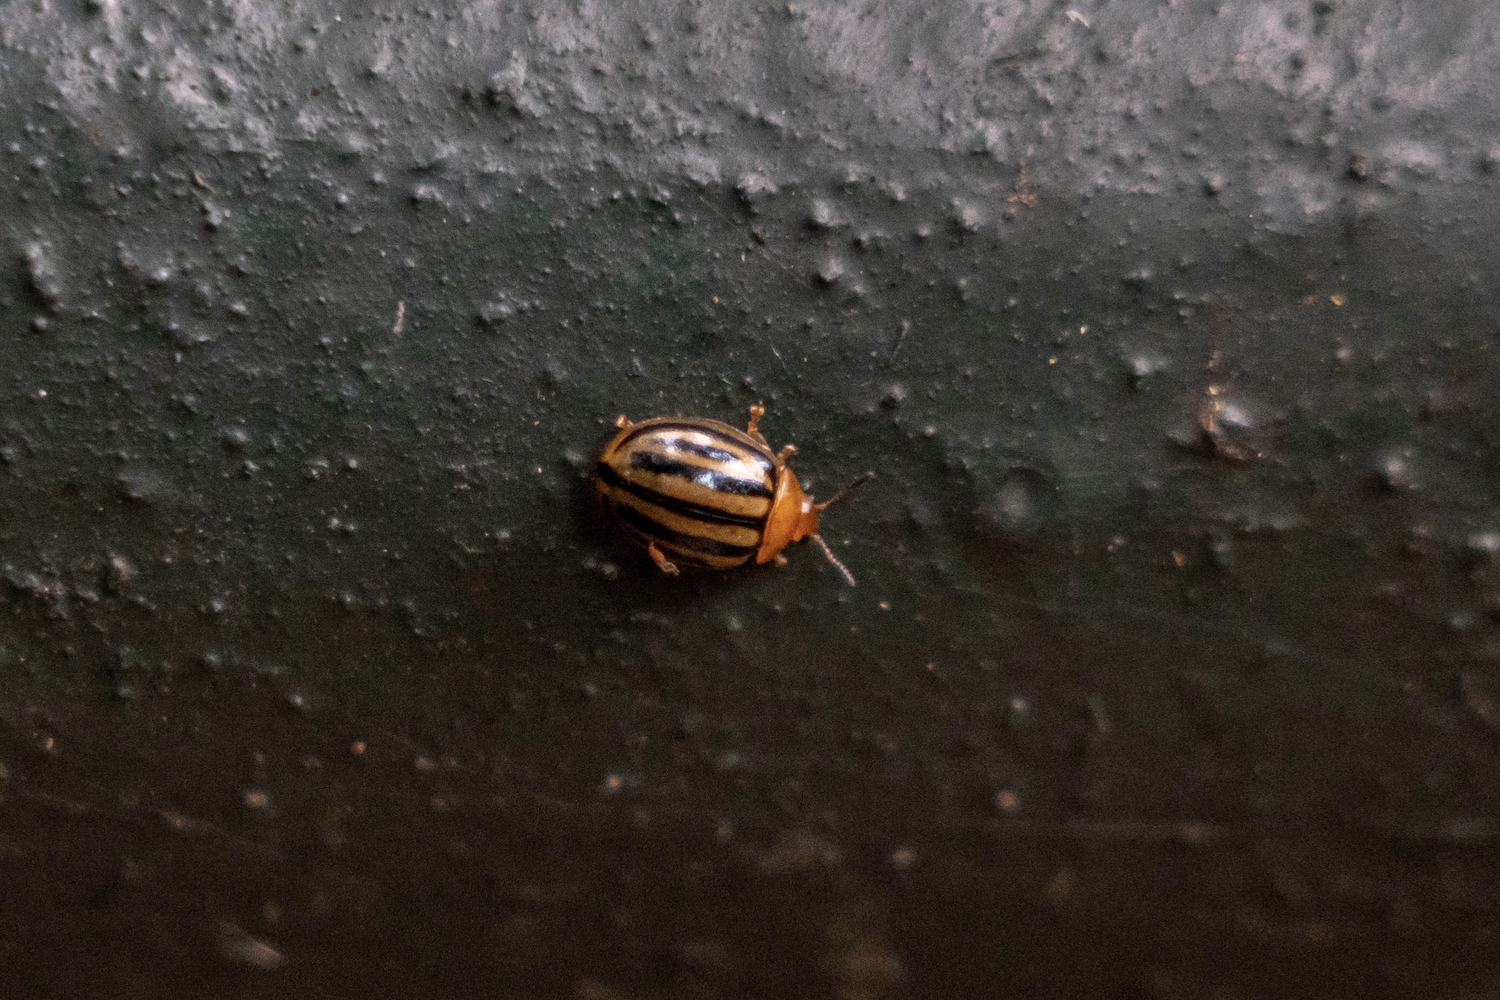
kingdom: Animalia
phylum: Arthropoda
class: Insecta
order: Coleoptera
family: Chrysomelidae
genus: Plagiodera
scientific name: Plagiodera septemvittata
